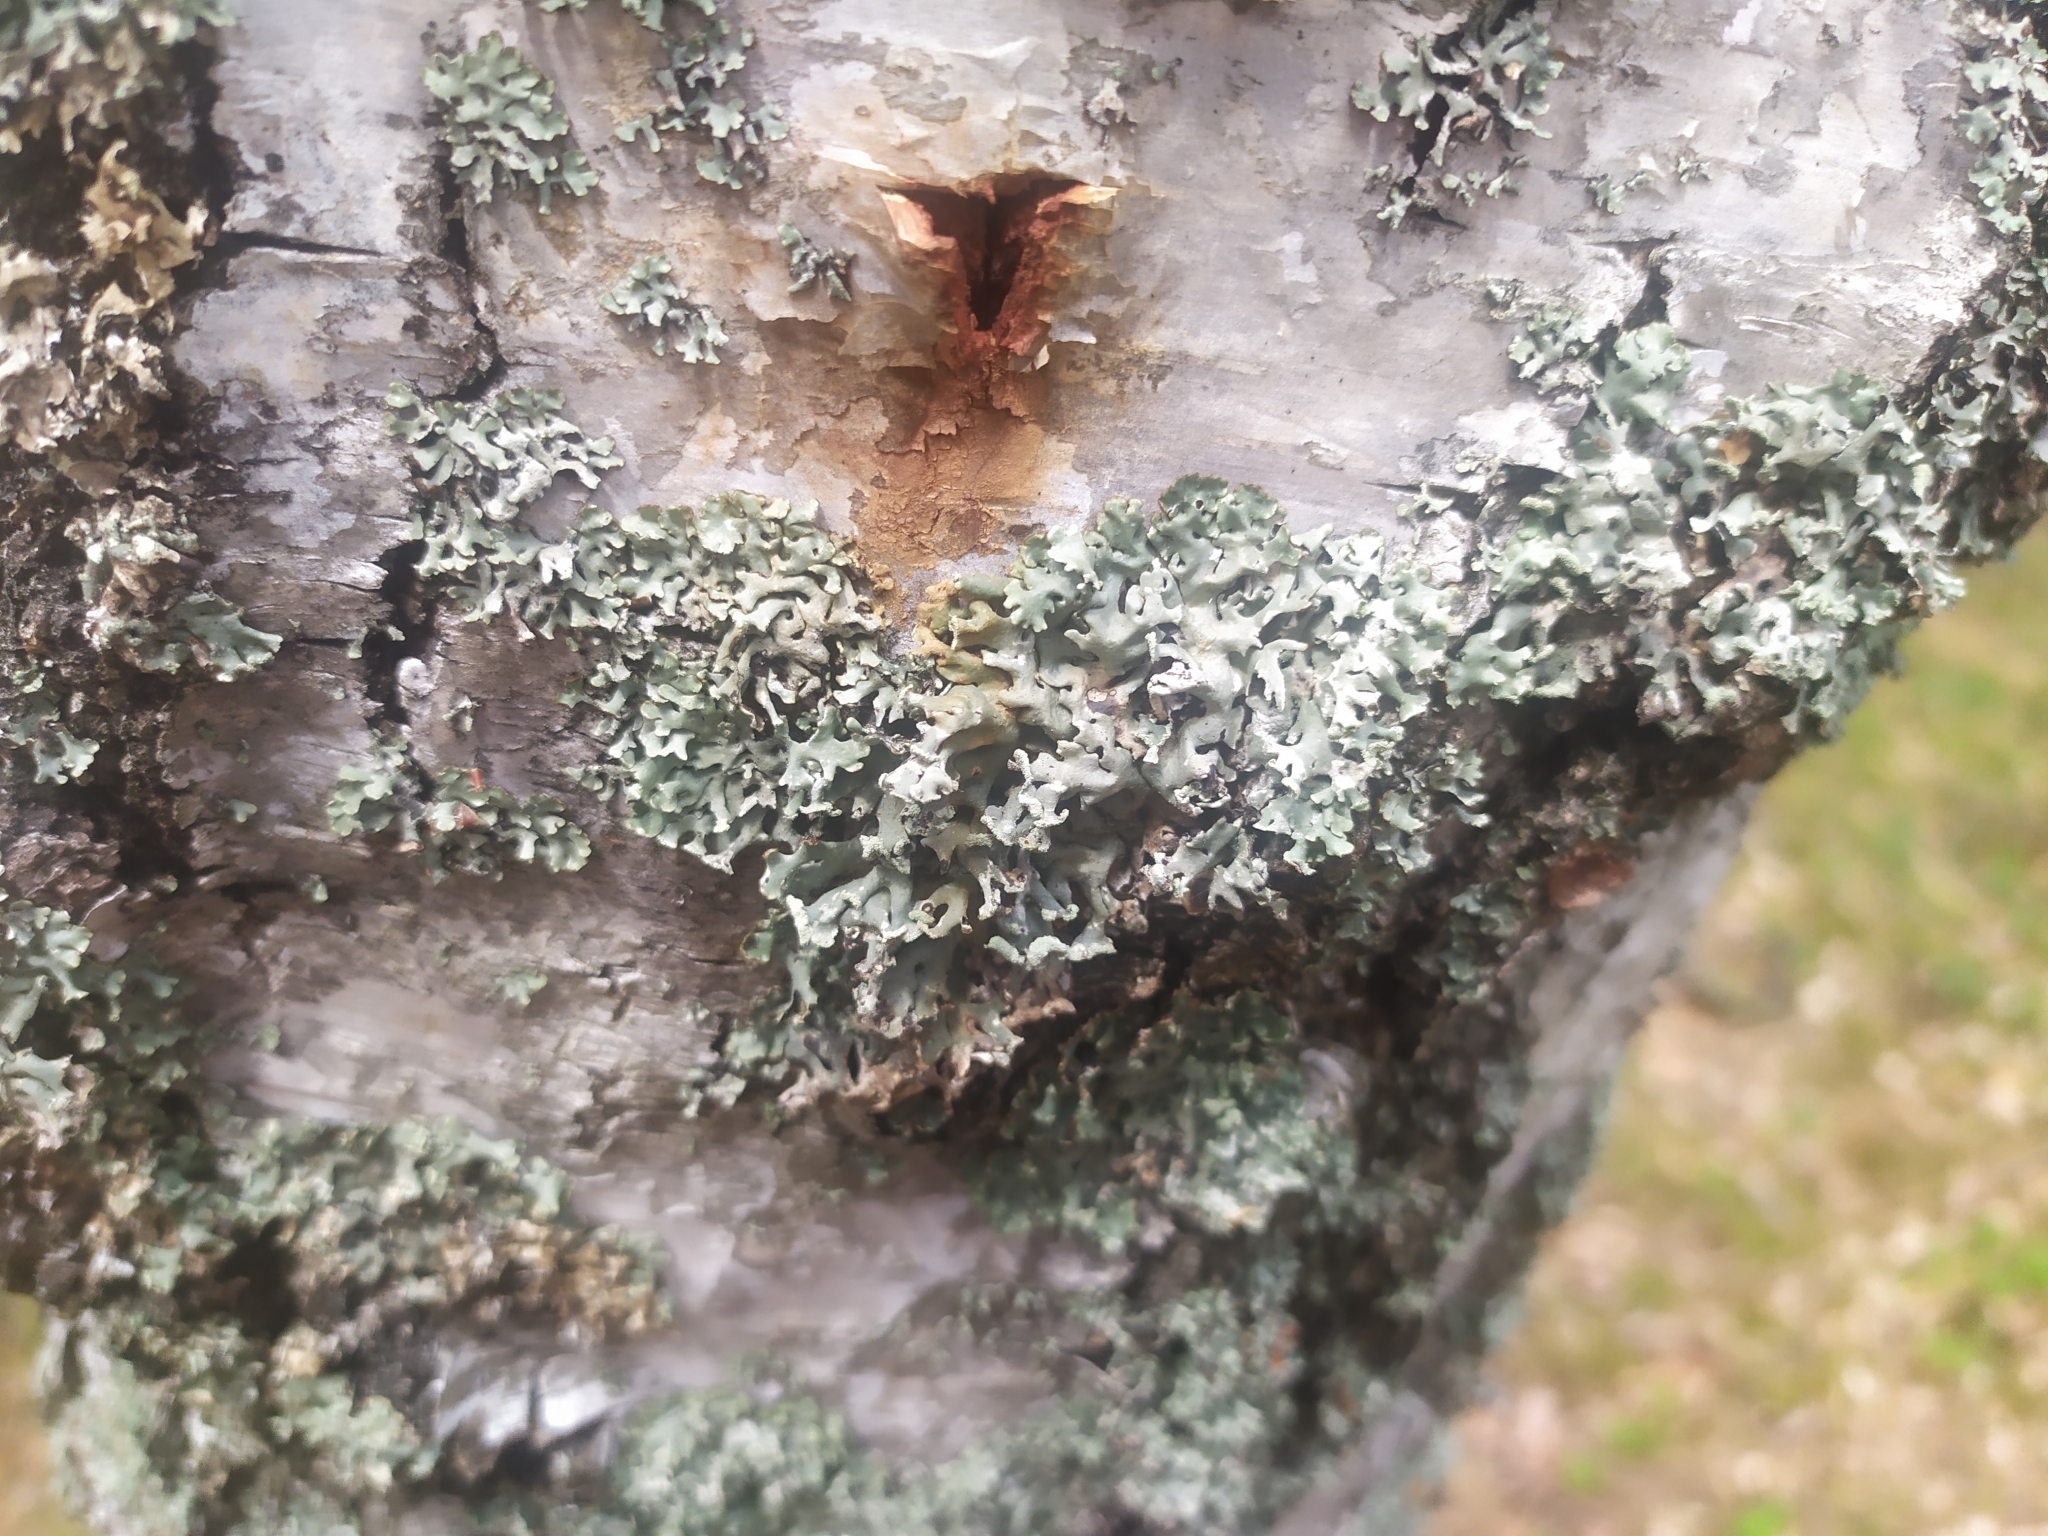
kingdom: Fungi
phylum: Ascomycota
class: Lecanoromycetes
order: Lecanorales
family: Parmeliaceae
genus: Hypogymnia
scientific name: Hypogymnia physodes
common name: Dark crottle
